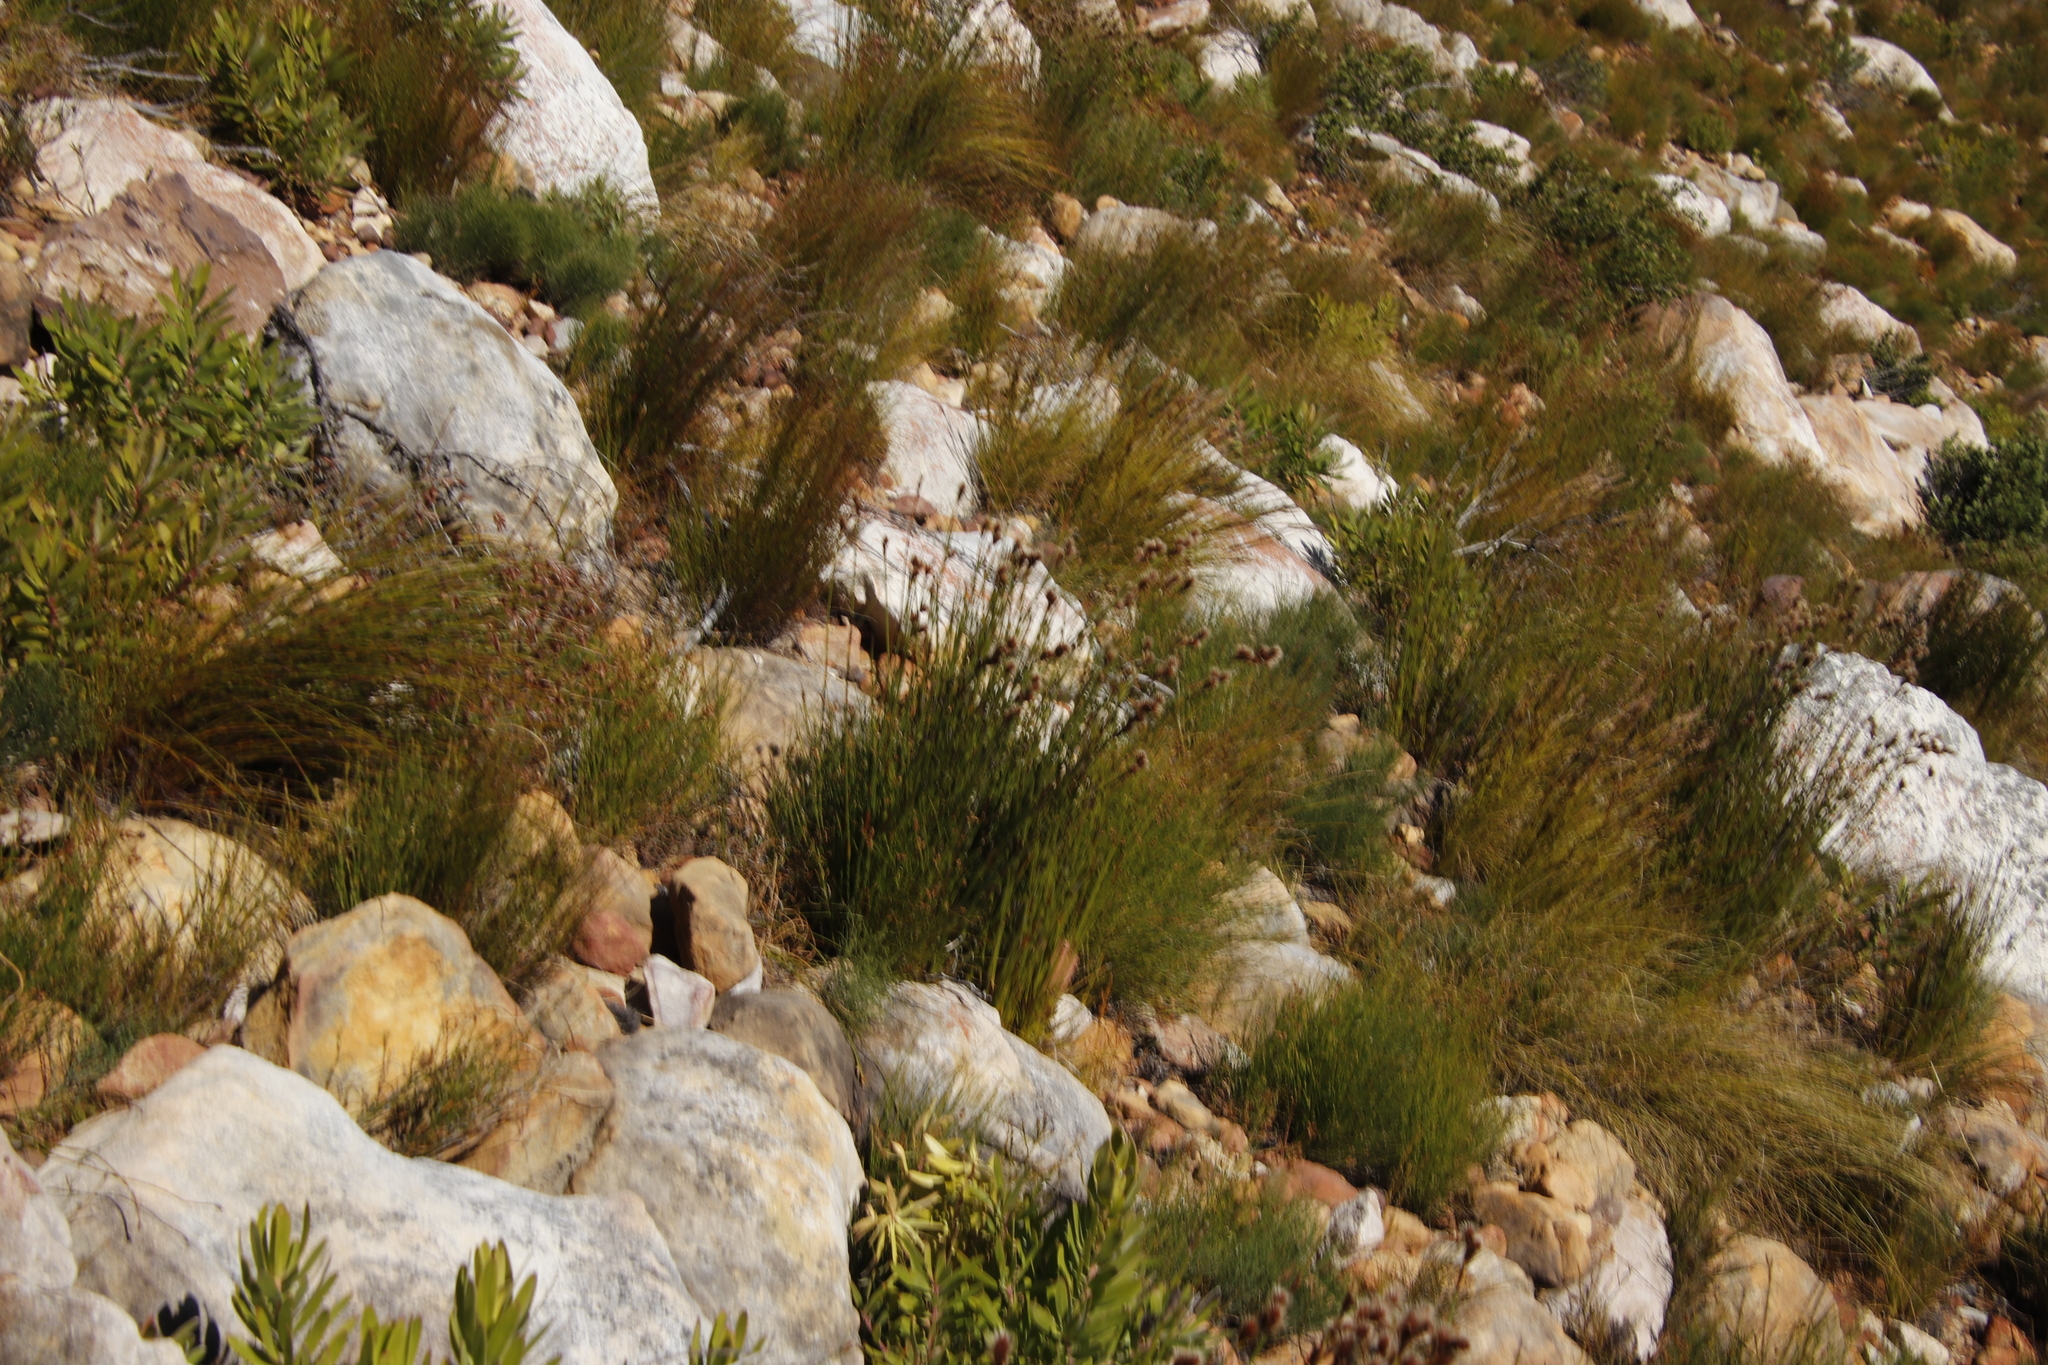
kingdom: Plantae
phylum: Tracheophyta
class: Liliopsida
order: Poales
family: Restionaceae
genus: Hypodiscus
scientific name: Hypodiscus alboaristatus
